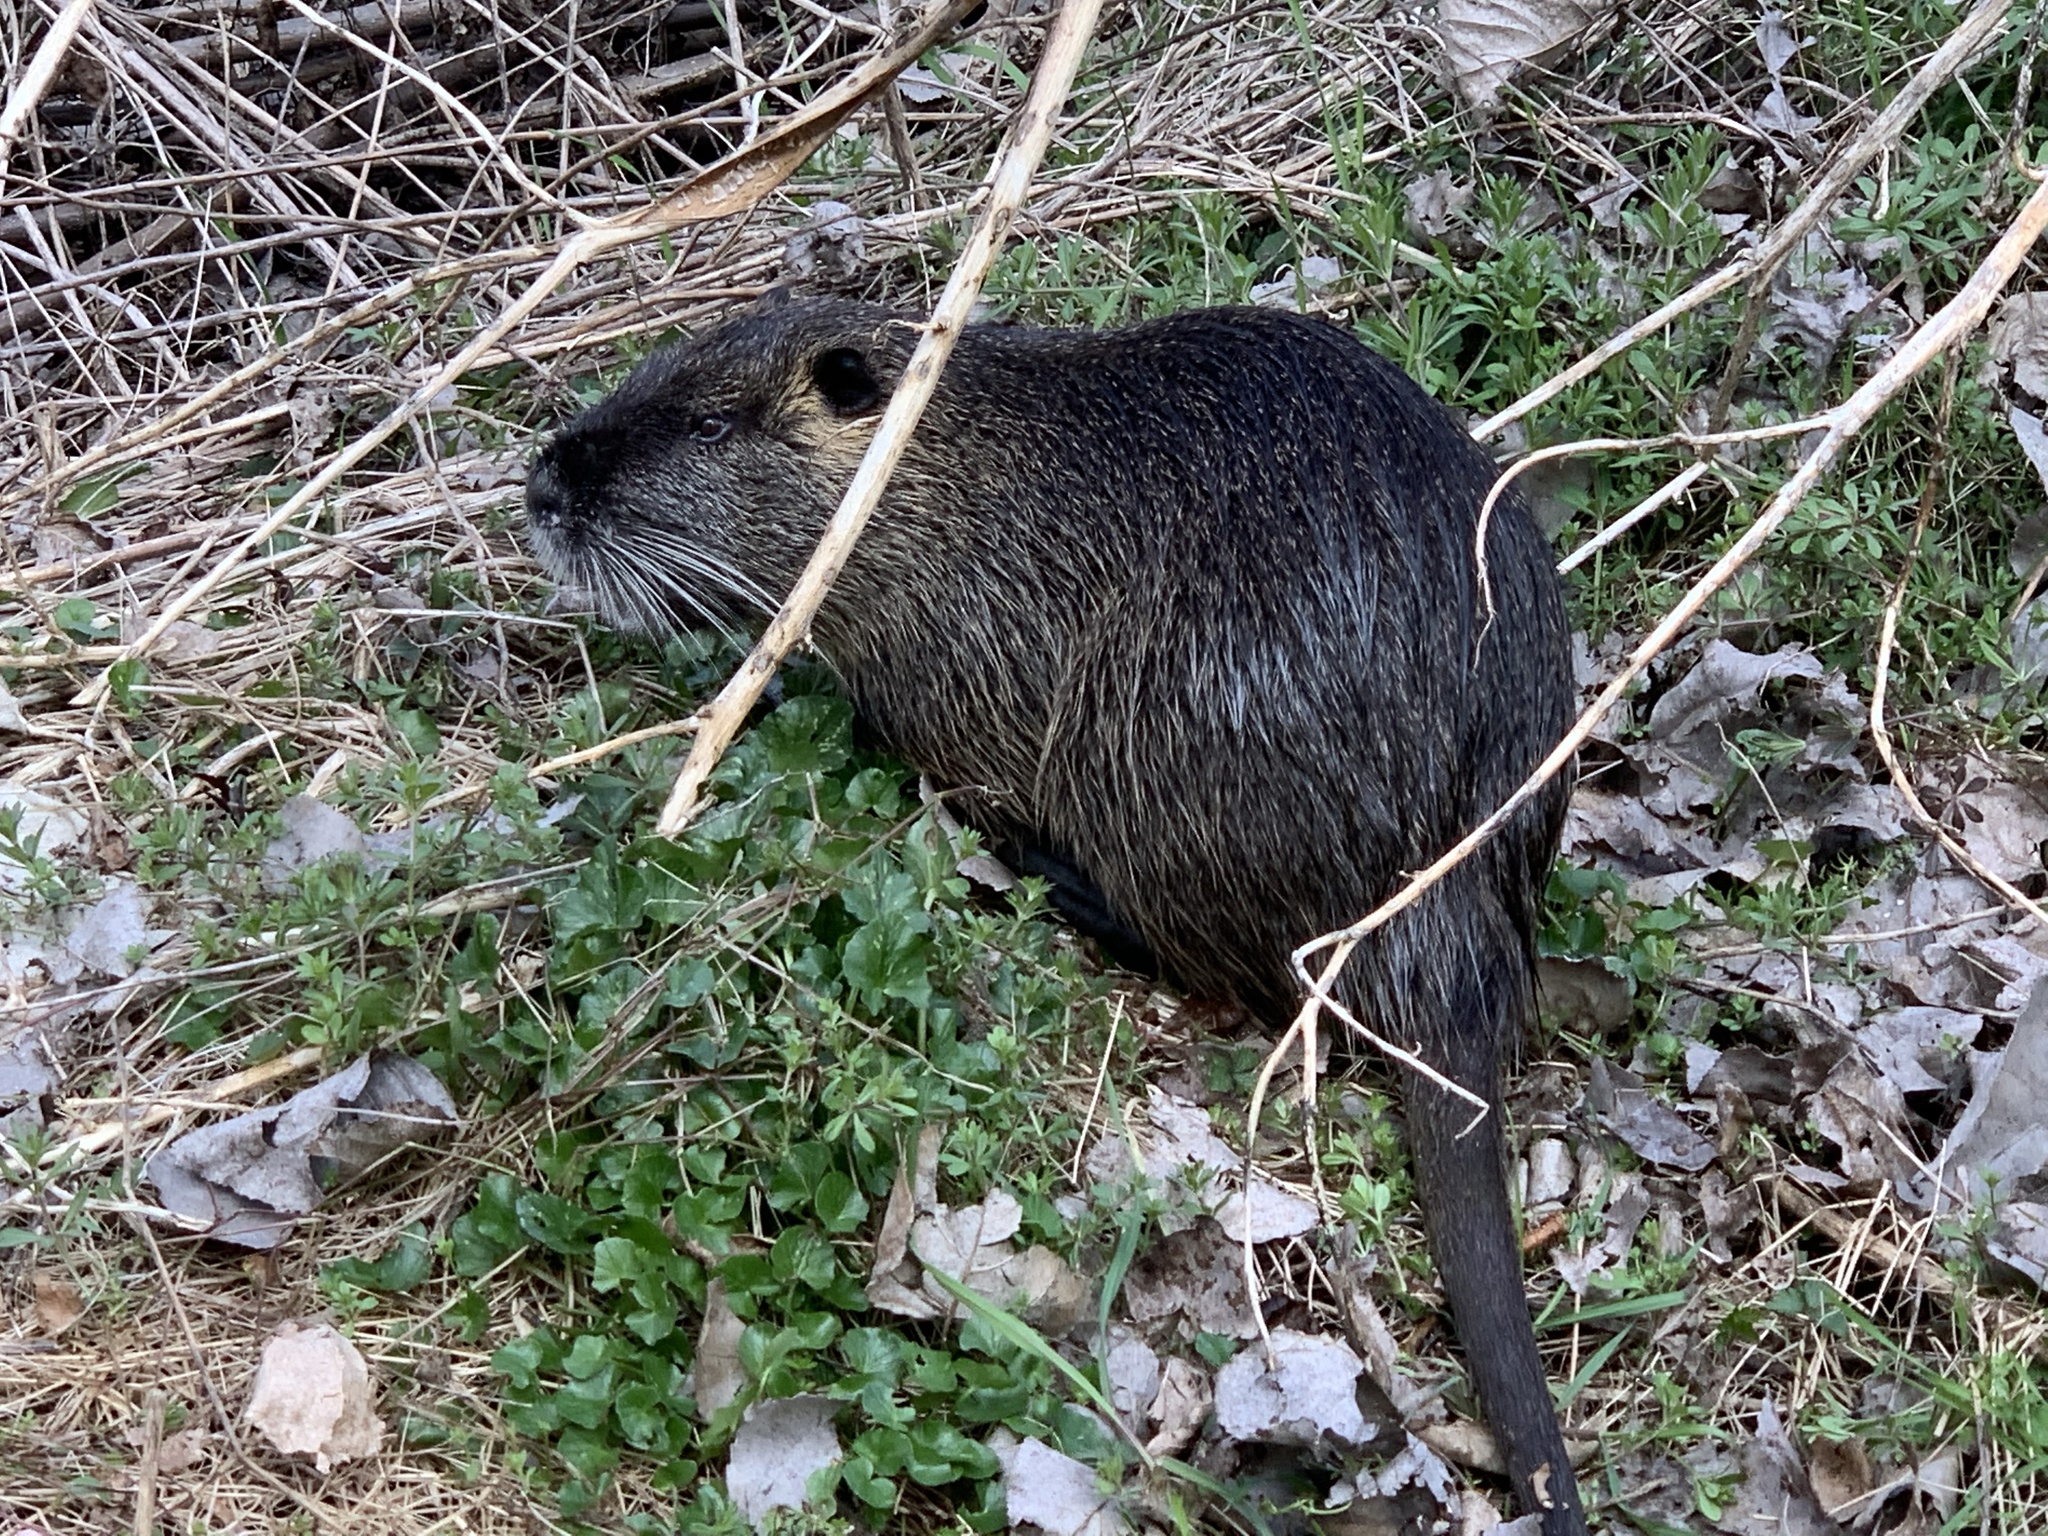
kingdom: Animalia
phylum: Chordata
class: Mammalia
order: Rodentia
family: Myocastoridae
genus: Myocastor
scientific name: Myocastor coypus
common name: Coypu
